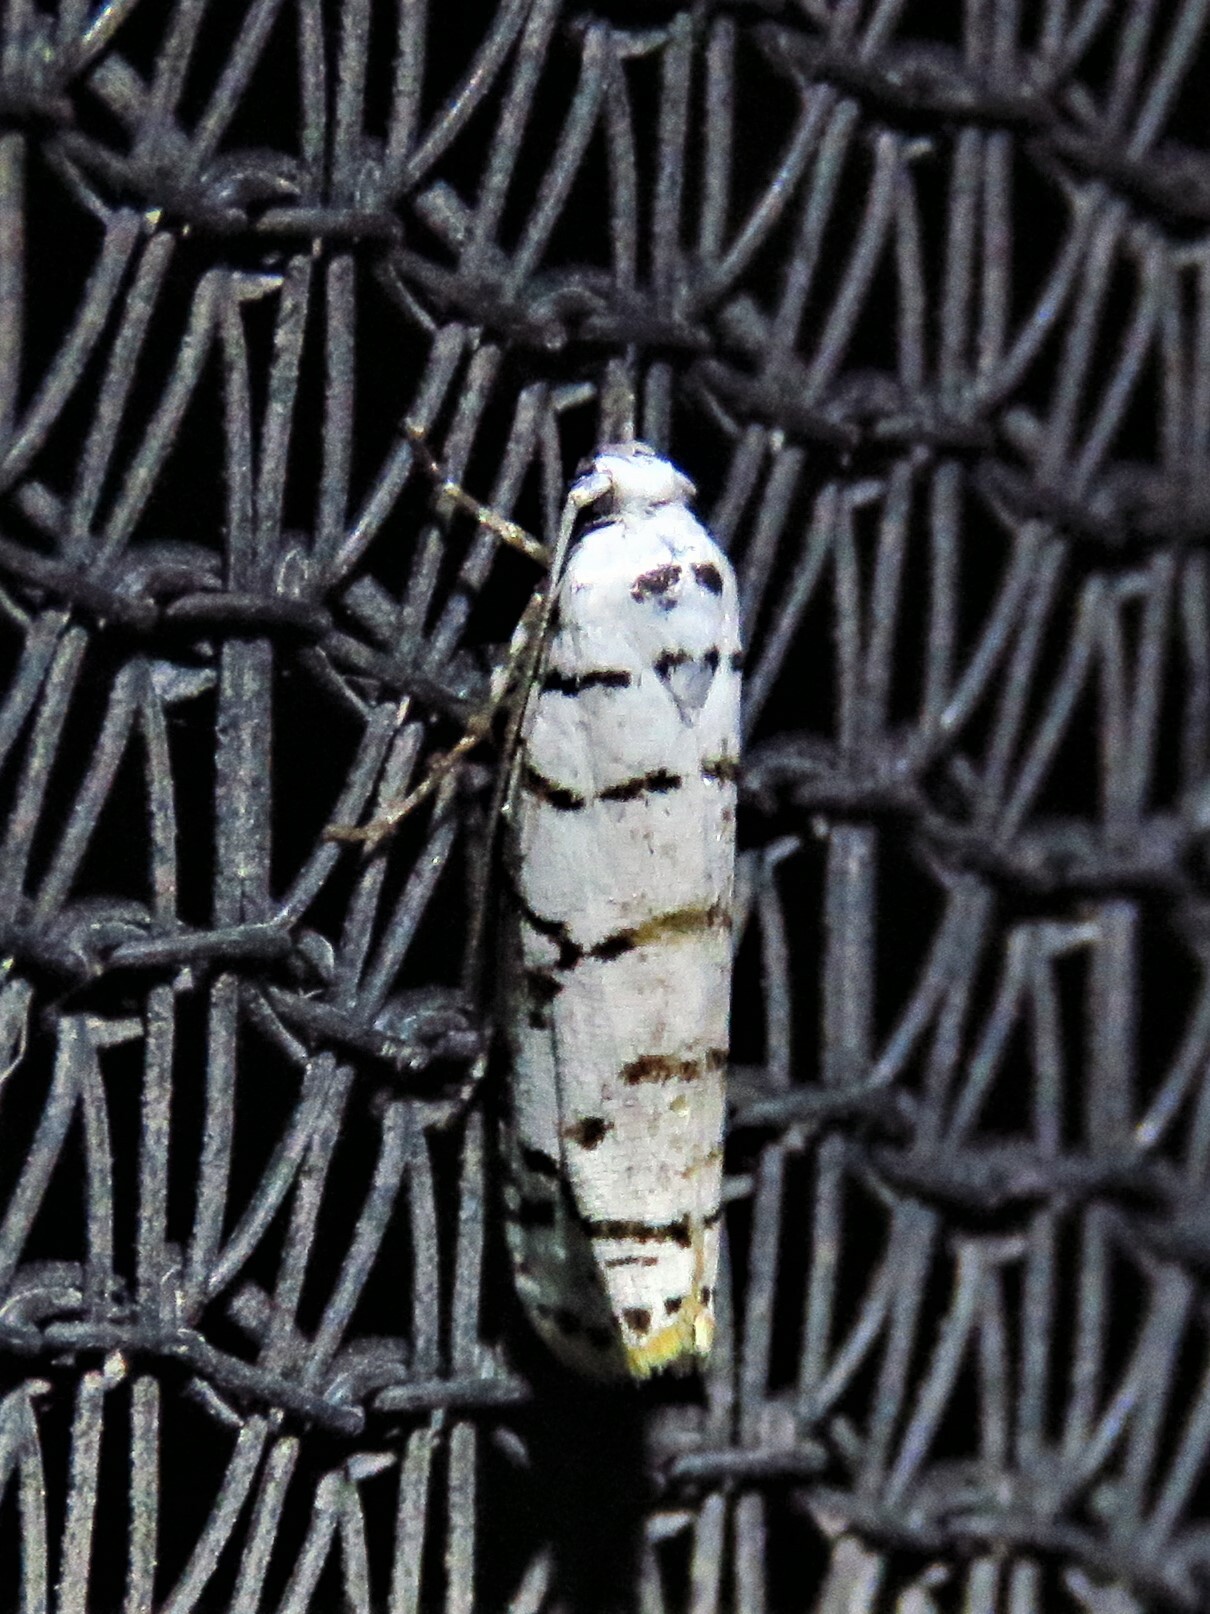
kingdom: Animalia
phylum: Arthropoda
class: Insecta
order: Lepidoptera
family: Ethmiidae
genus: Ethmia
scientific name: Ethmia delliella
